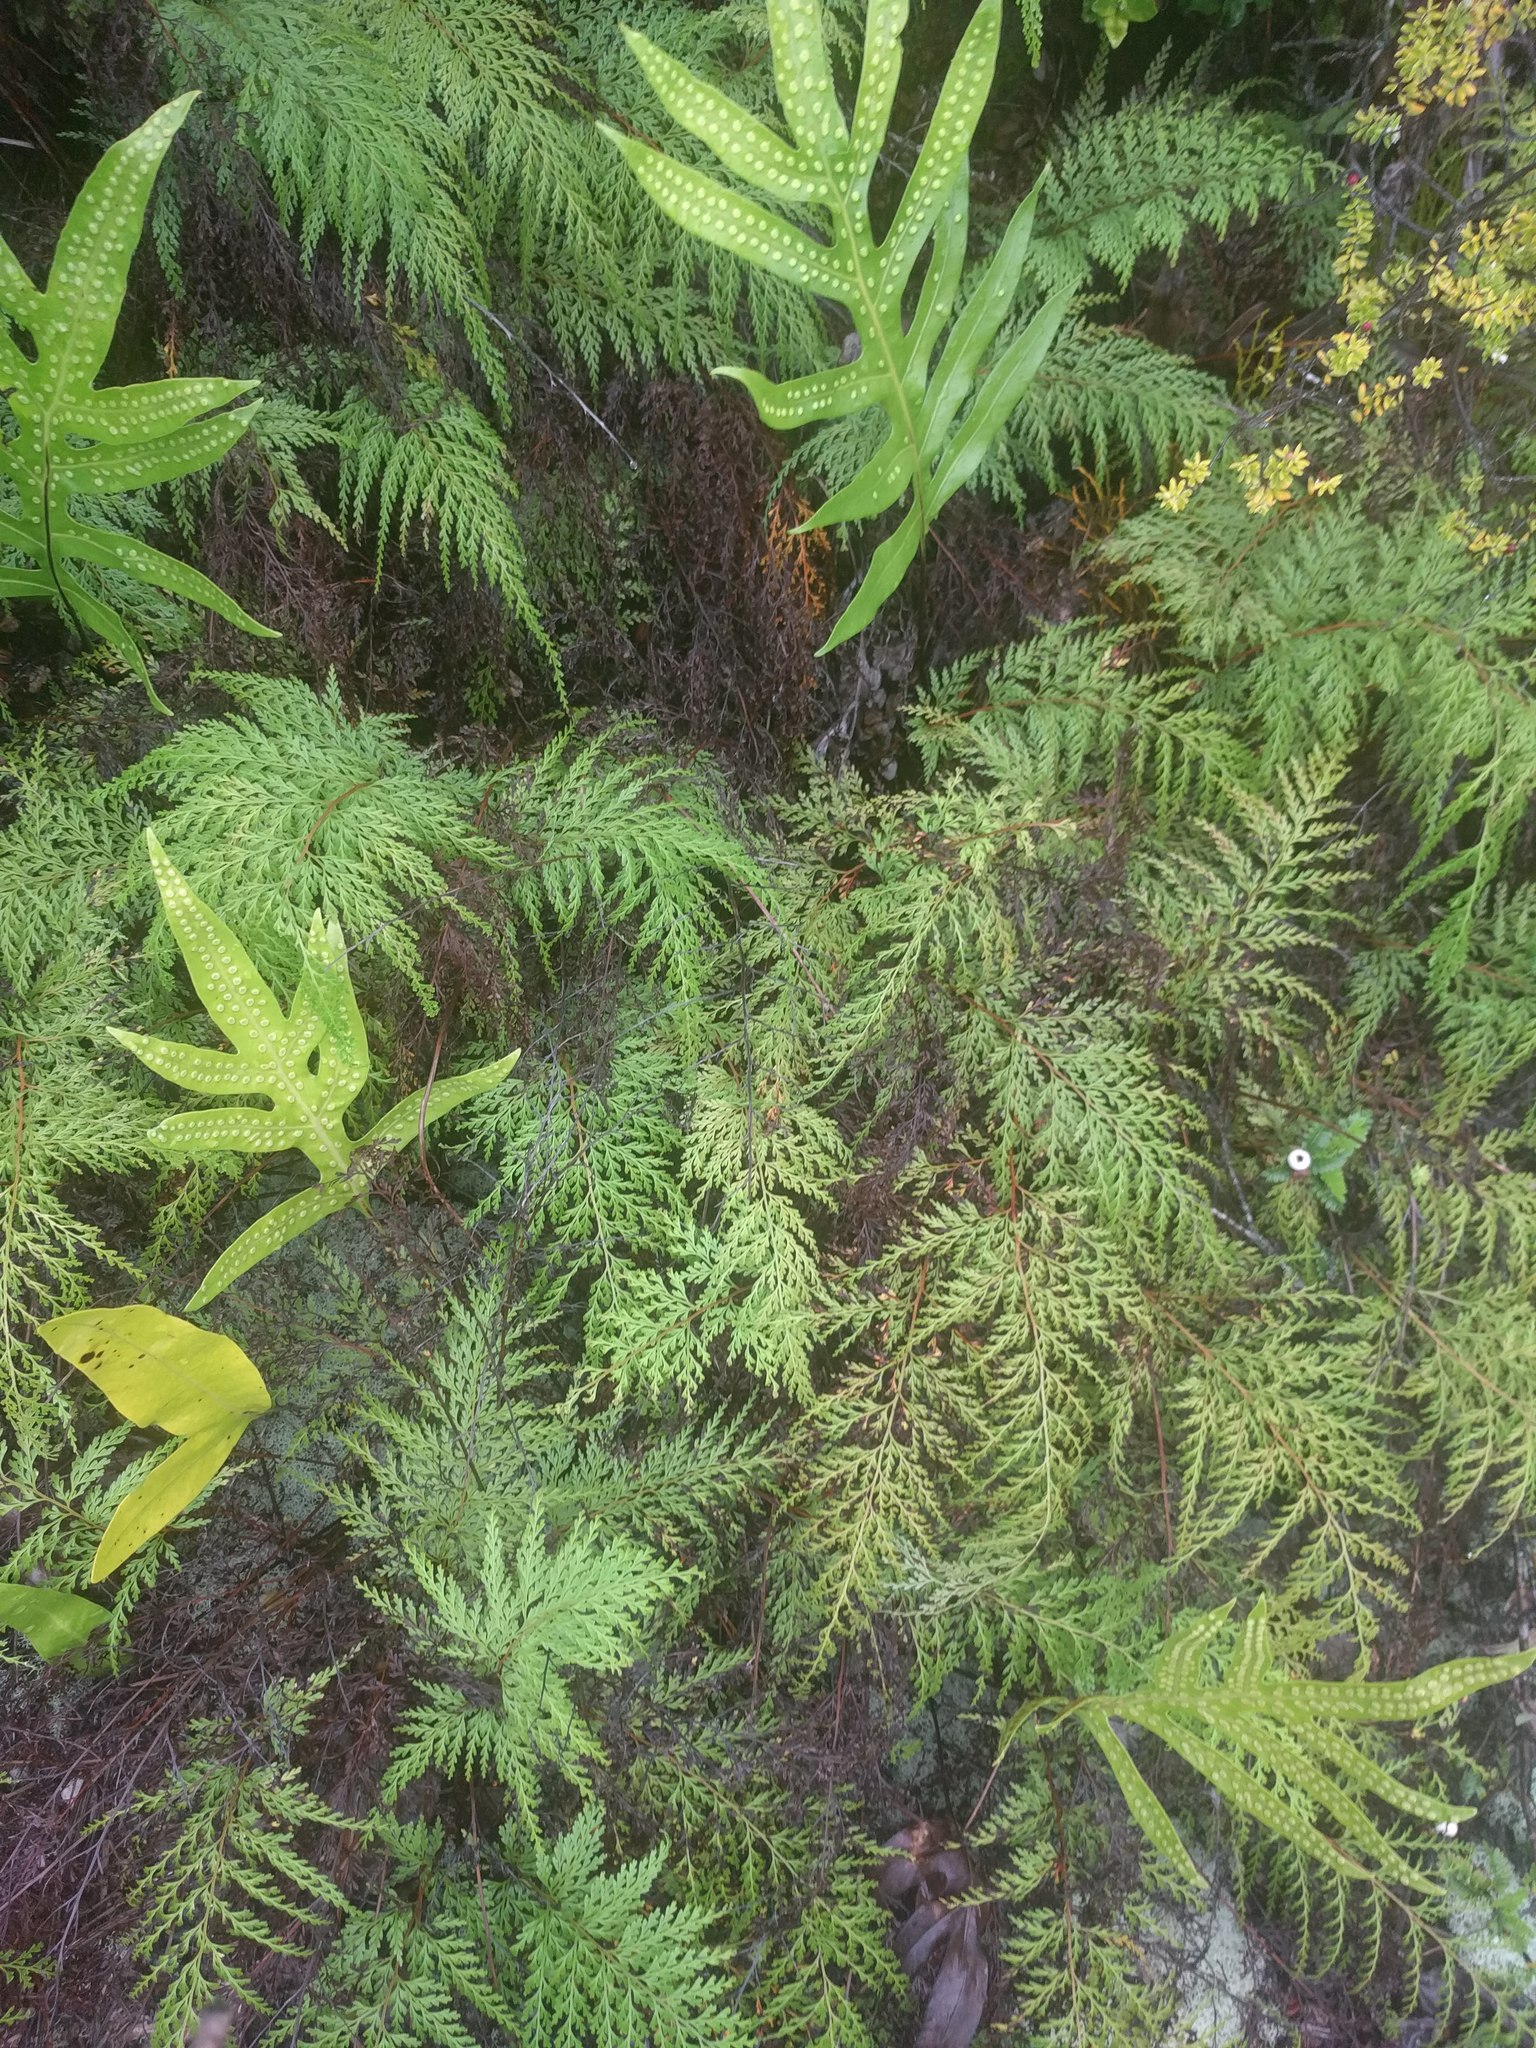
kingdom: Plantae
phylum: Tracheophyta
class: Polypodiopsida
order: Polypodiales
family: Lindsaeaceae
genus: Odontosoria
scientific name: Odontosoria chinensis
